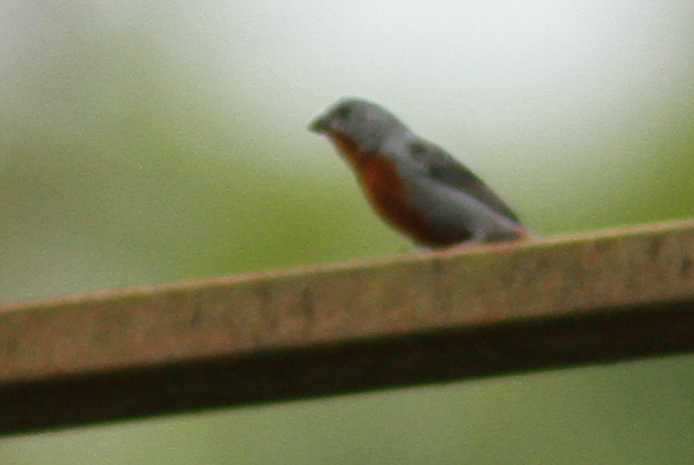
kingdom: Animalia
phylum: Chordata
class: Aves
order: Passeriformes
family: Thraupidae
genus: Sporophila
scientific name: Sporophila castaneiventris
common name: Chestnut-bellied seedeater
